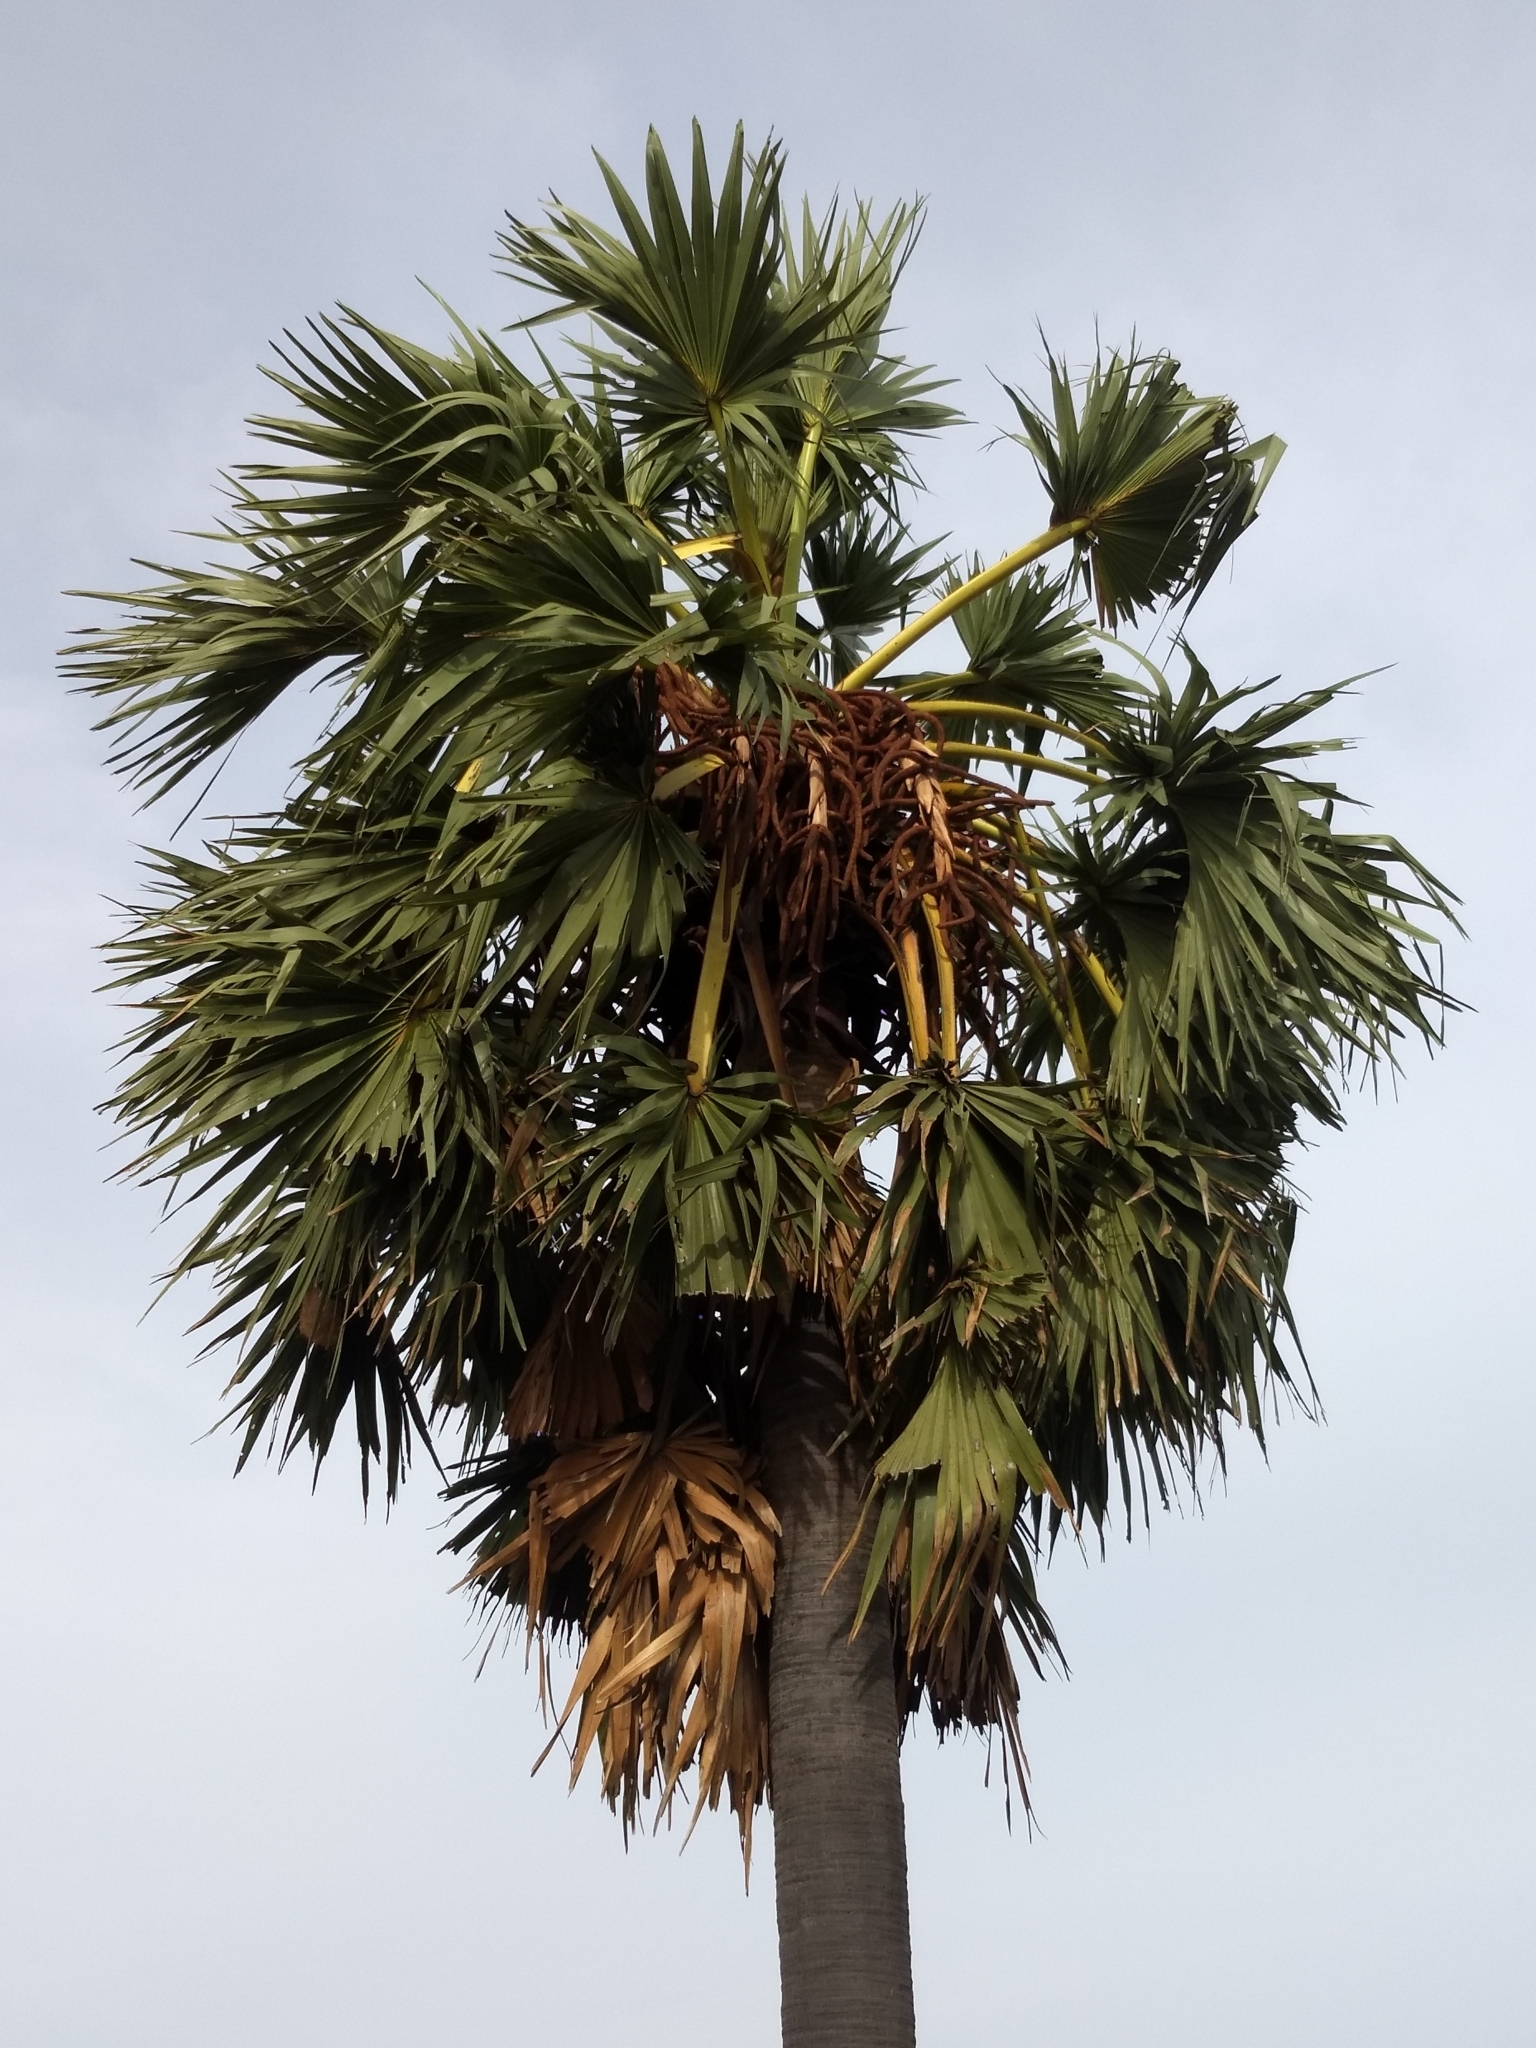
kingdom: Plantae
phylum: Tracheophyta
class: Liliopsida
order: Arecales
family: Arecaceae
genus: Borassus
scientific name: Borassus flabellifer
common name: Palmyra palm
